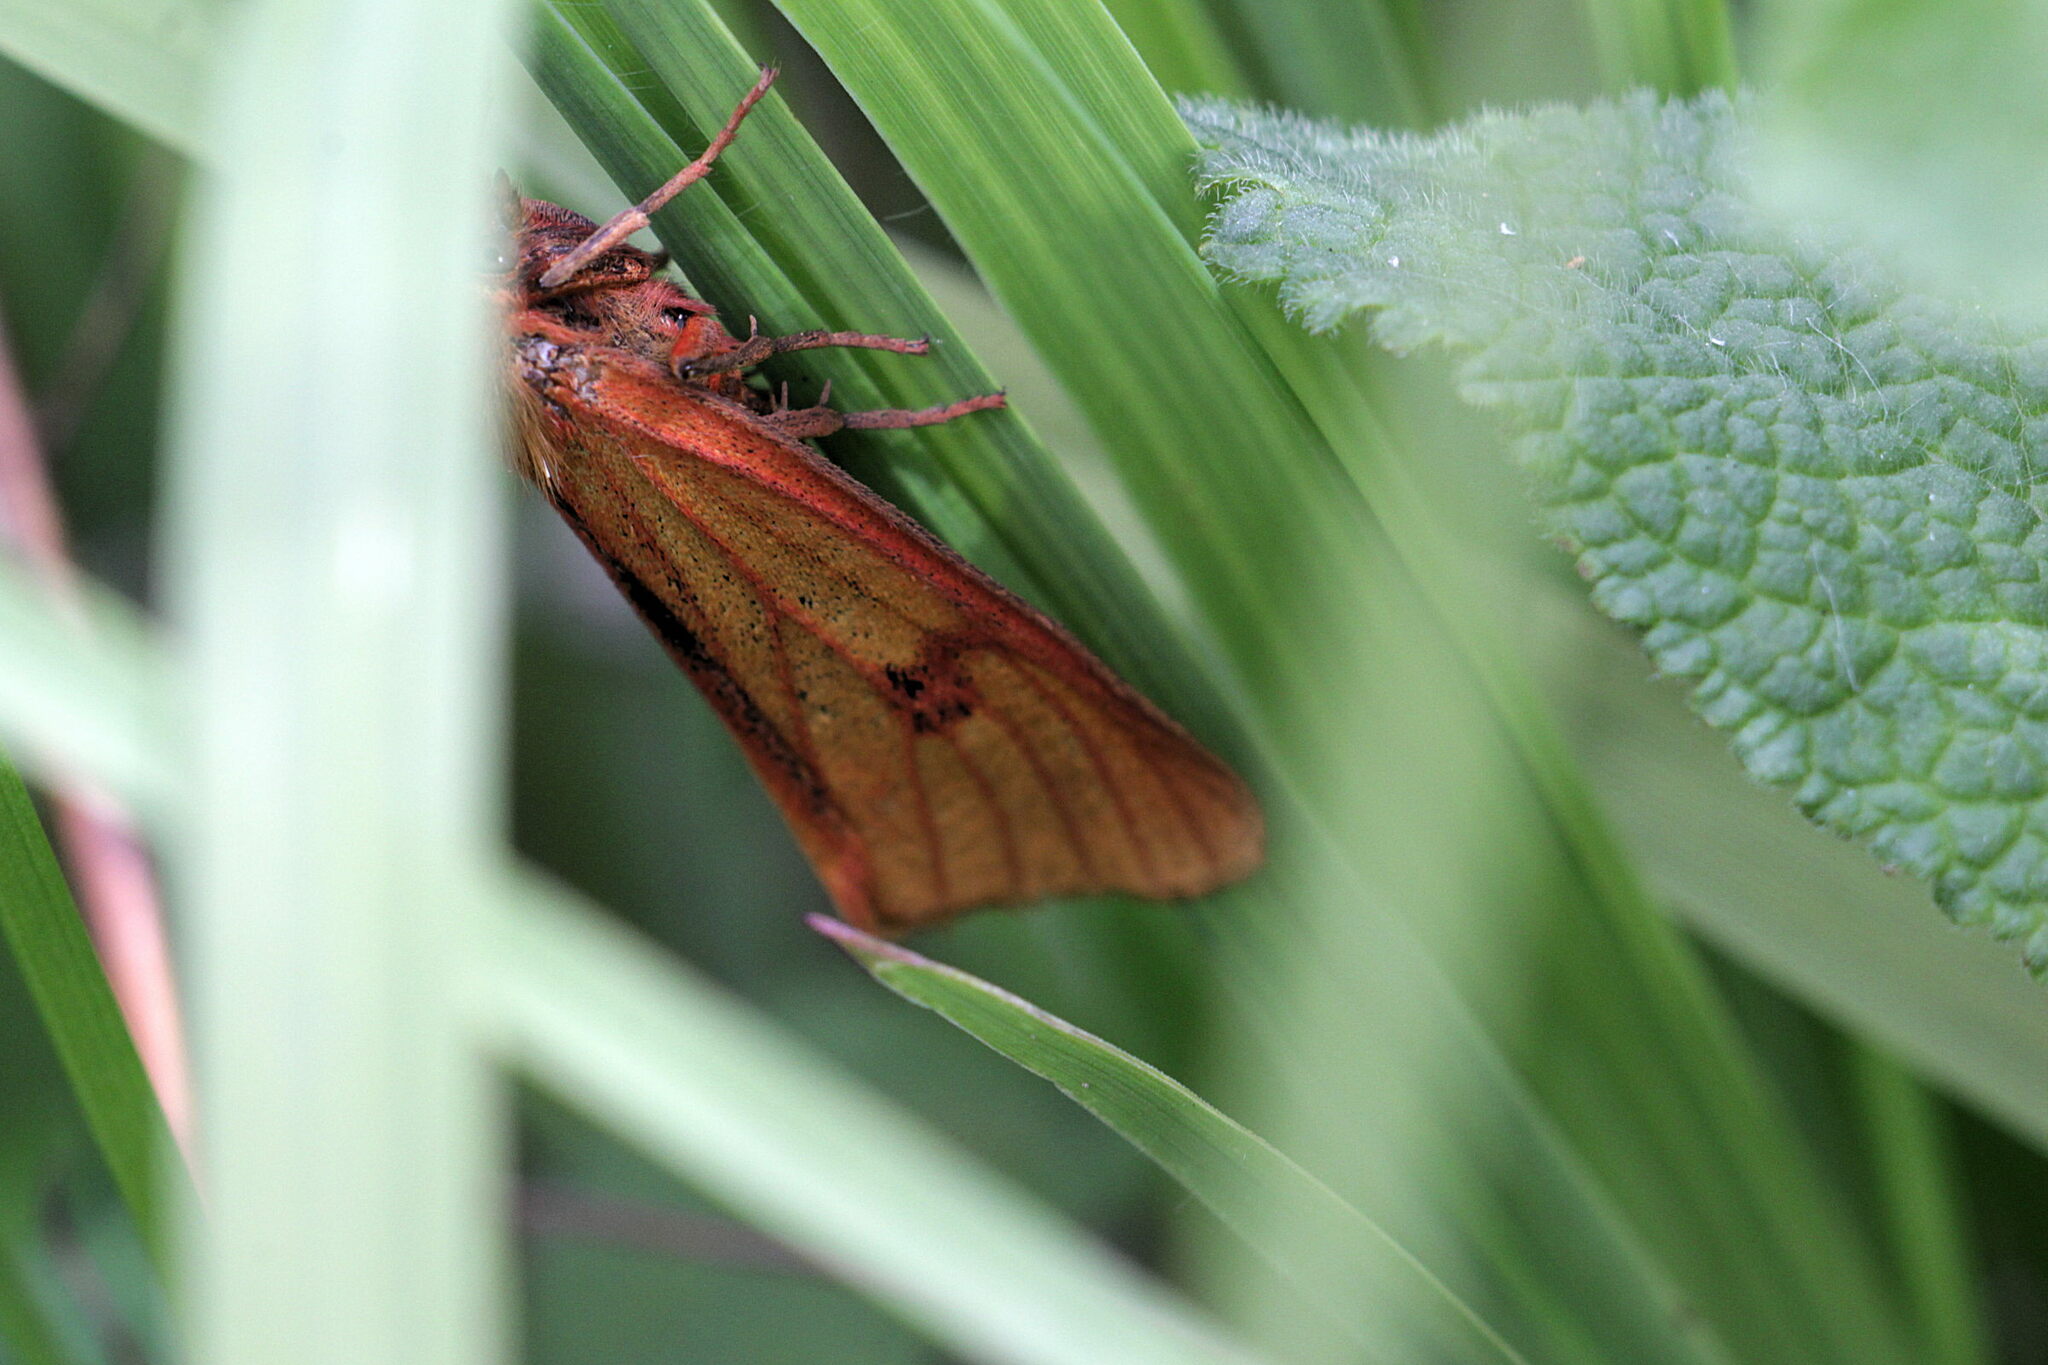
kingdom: Animalia
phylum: Arthropoda
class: Insecta
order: Lepidoptera
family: Erebidae
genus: Diacrisia
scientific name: Diacrisia sannio
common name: Clouded buff
